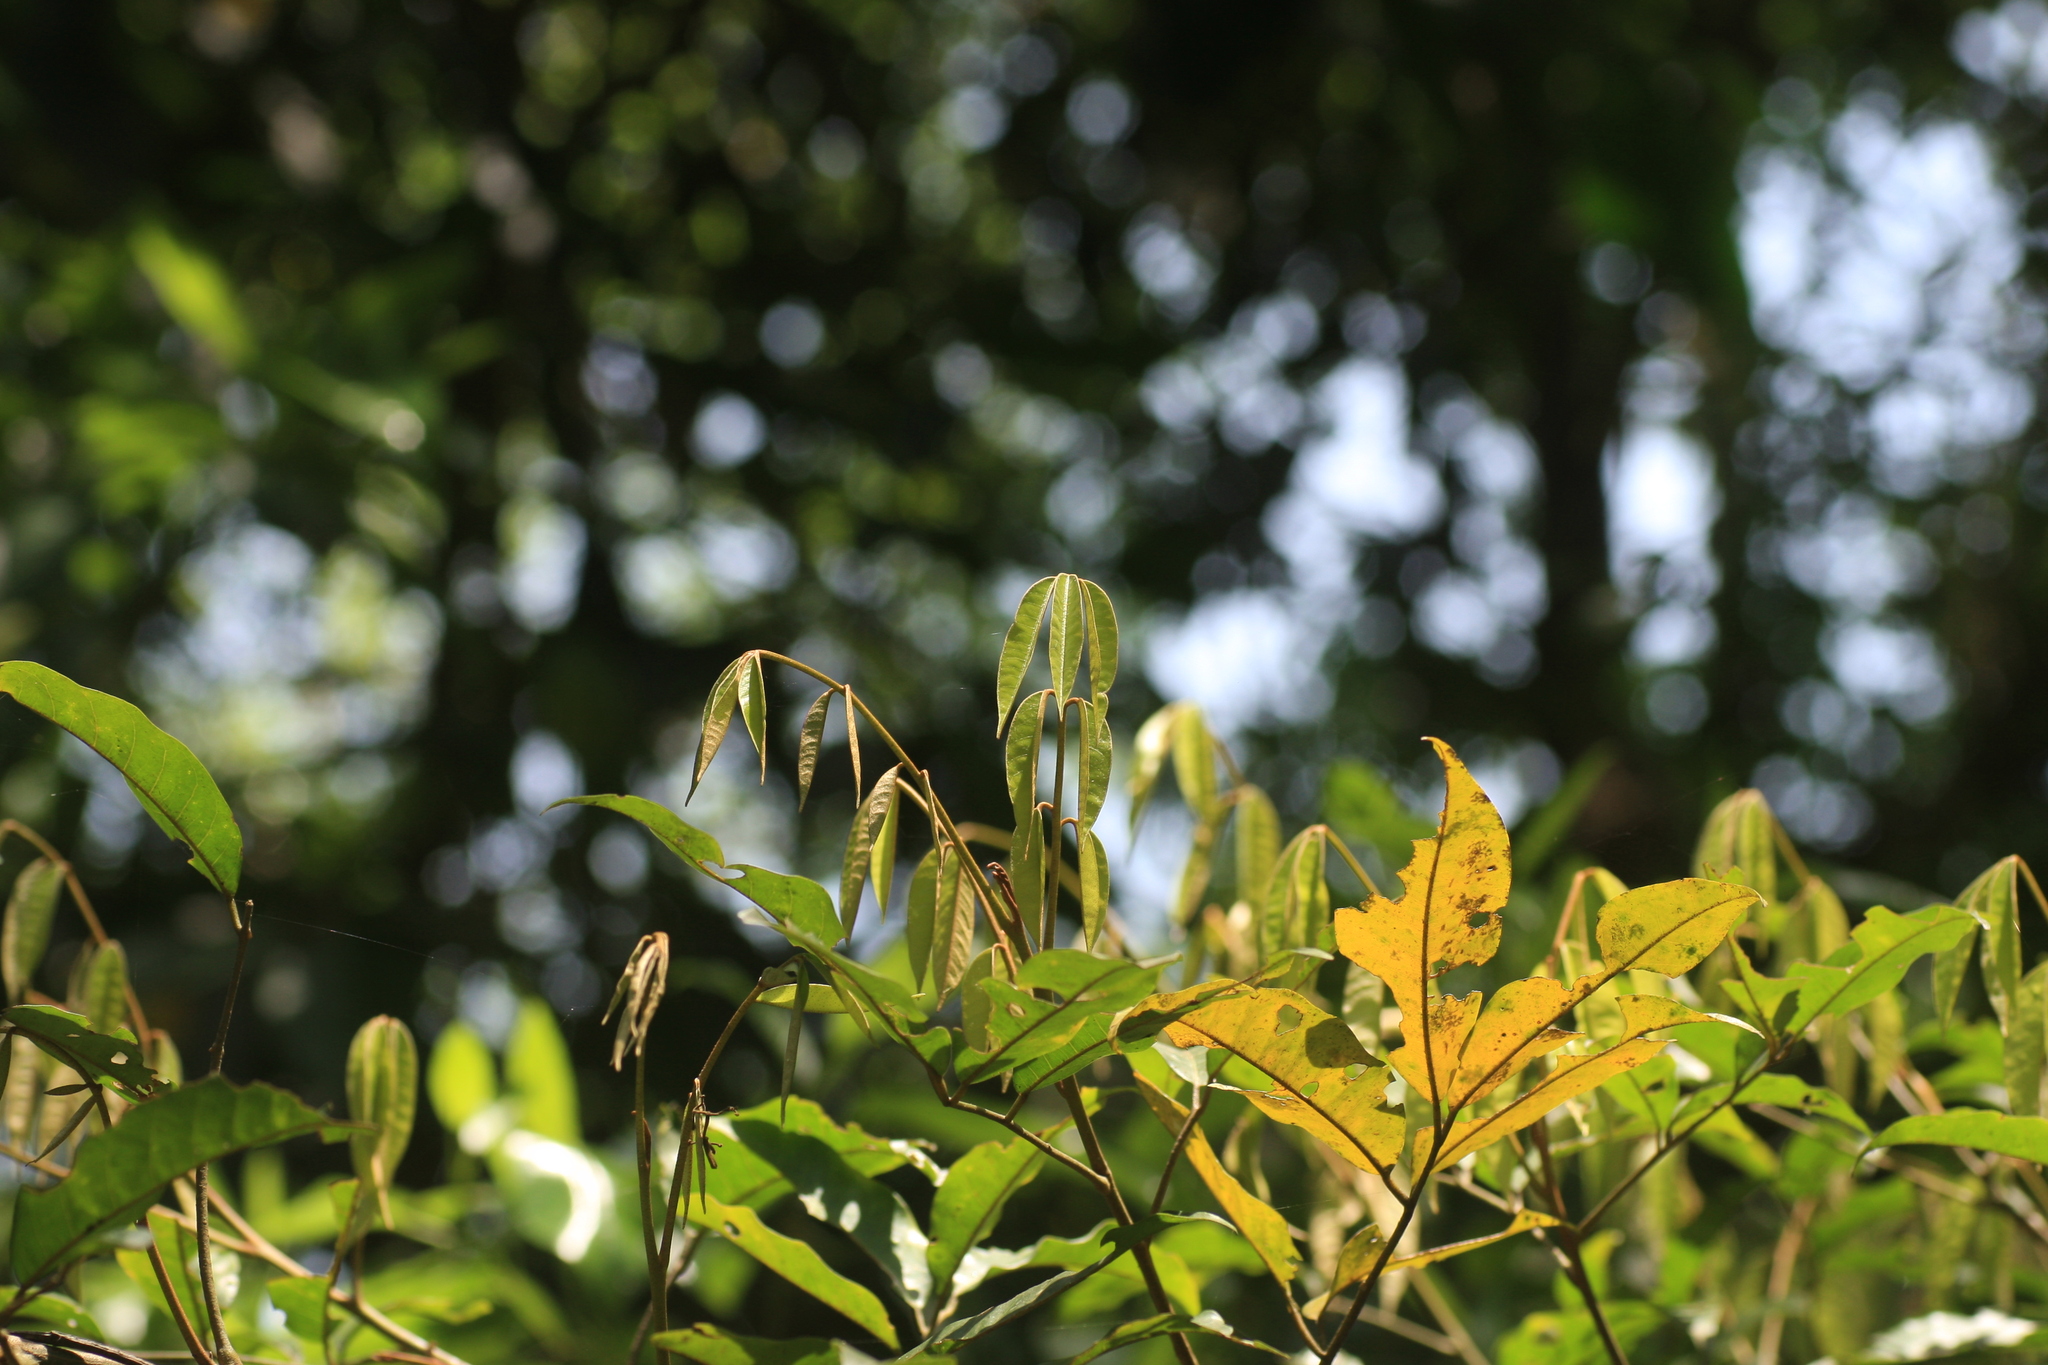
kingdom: Plantae
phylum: Tracheophyta
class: Magnoliopsida
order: Sapindales
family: Meliaceae
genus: Aglaia
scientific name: Aglaia elaeagnoidea
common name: Droopyleaf
